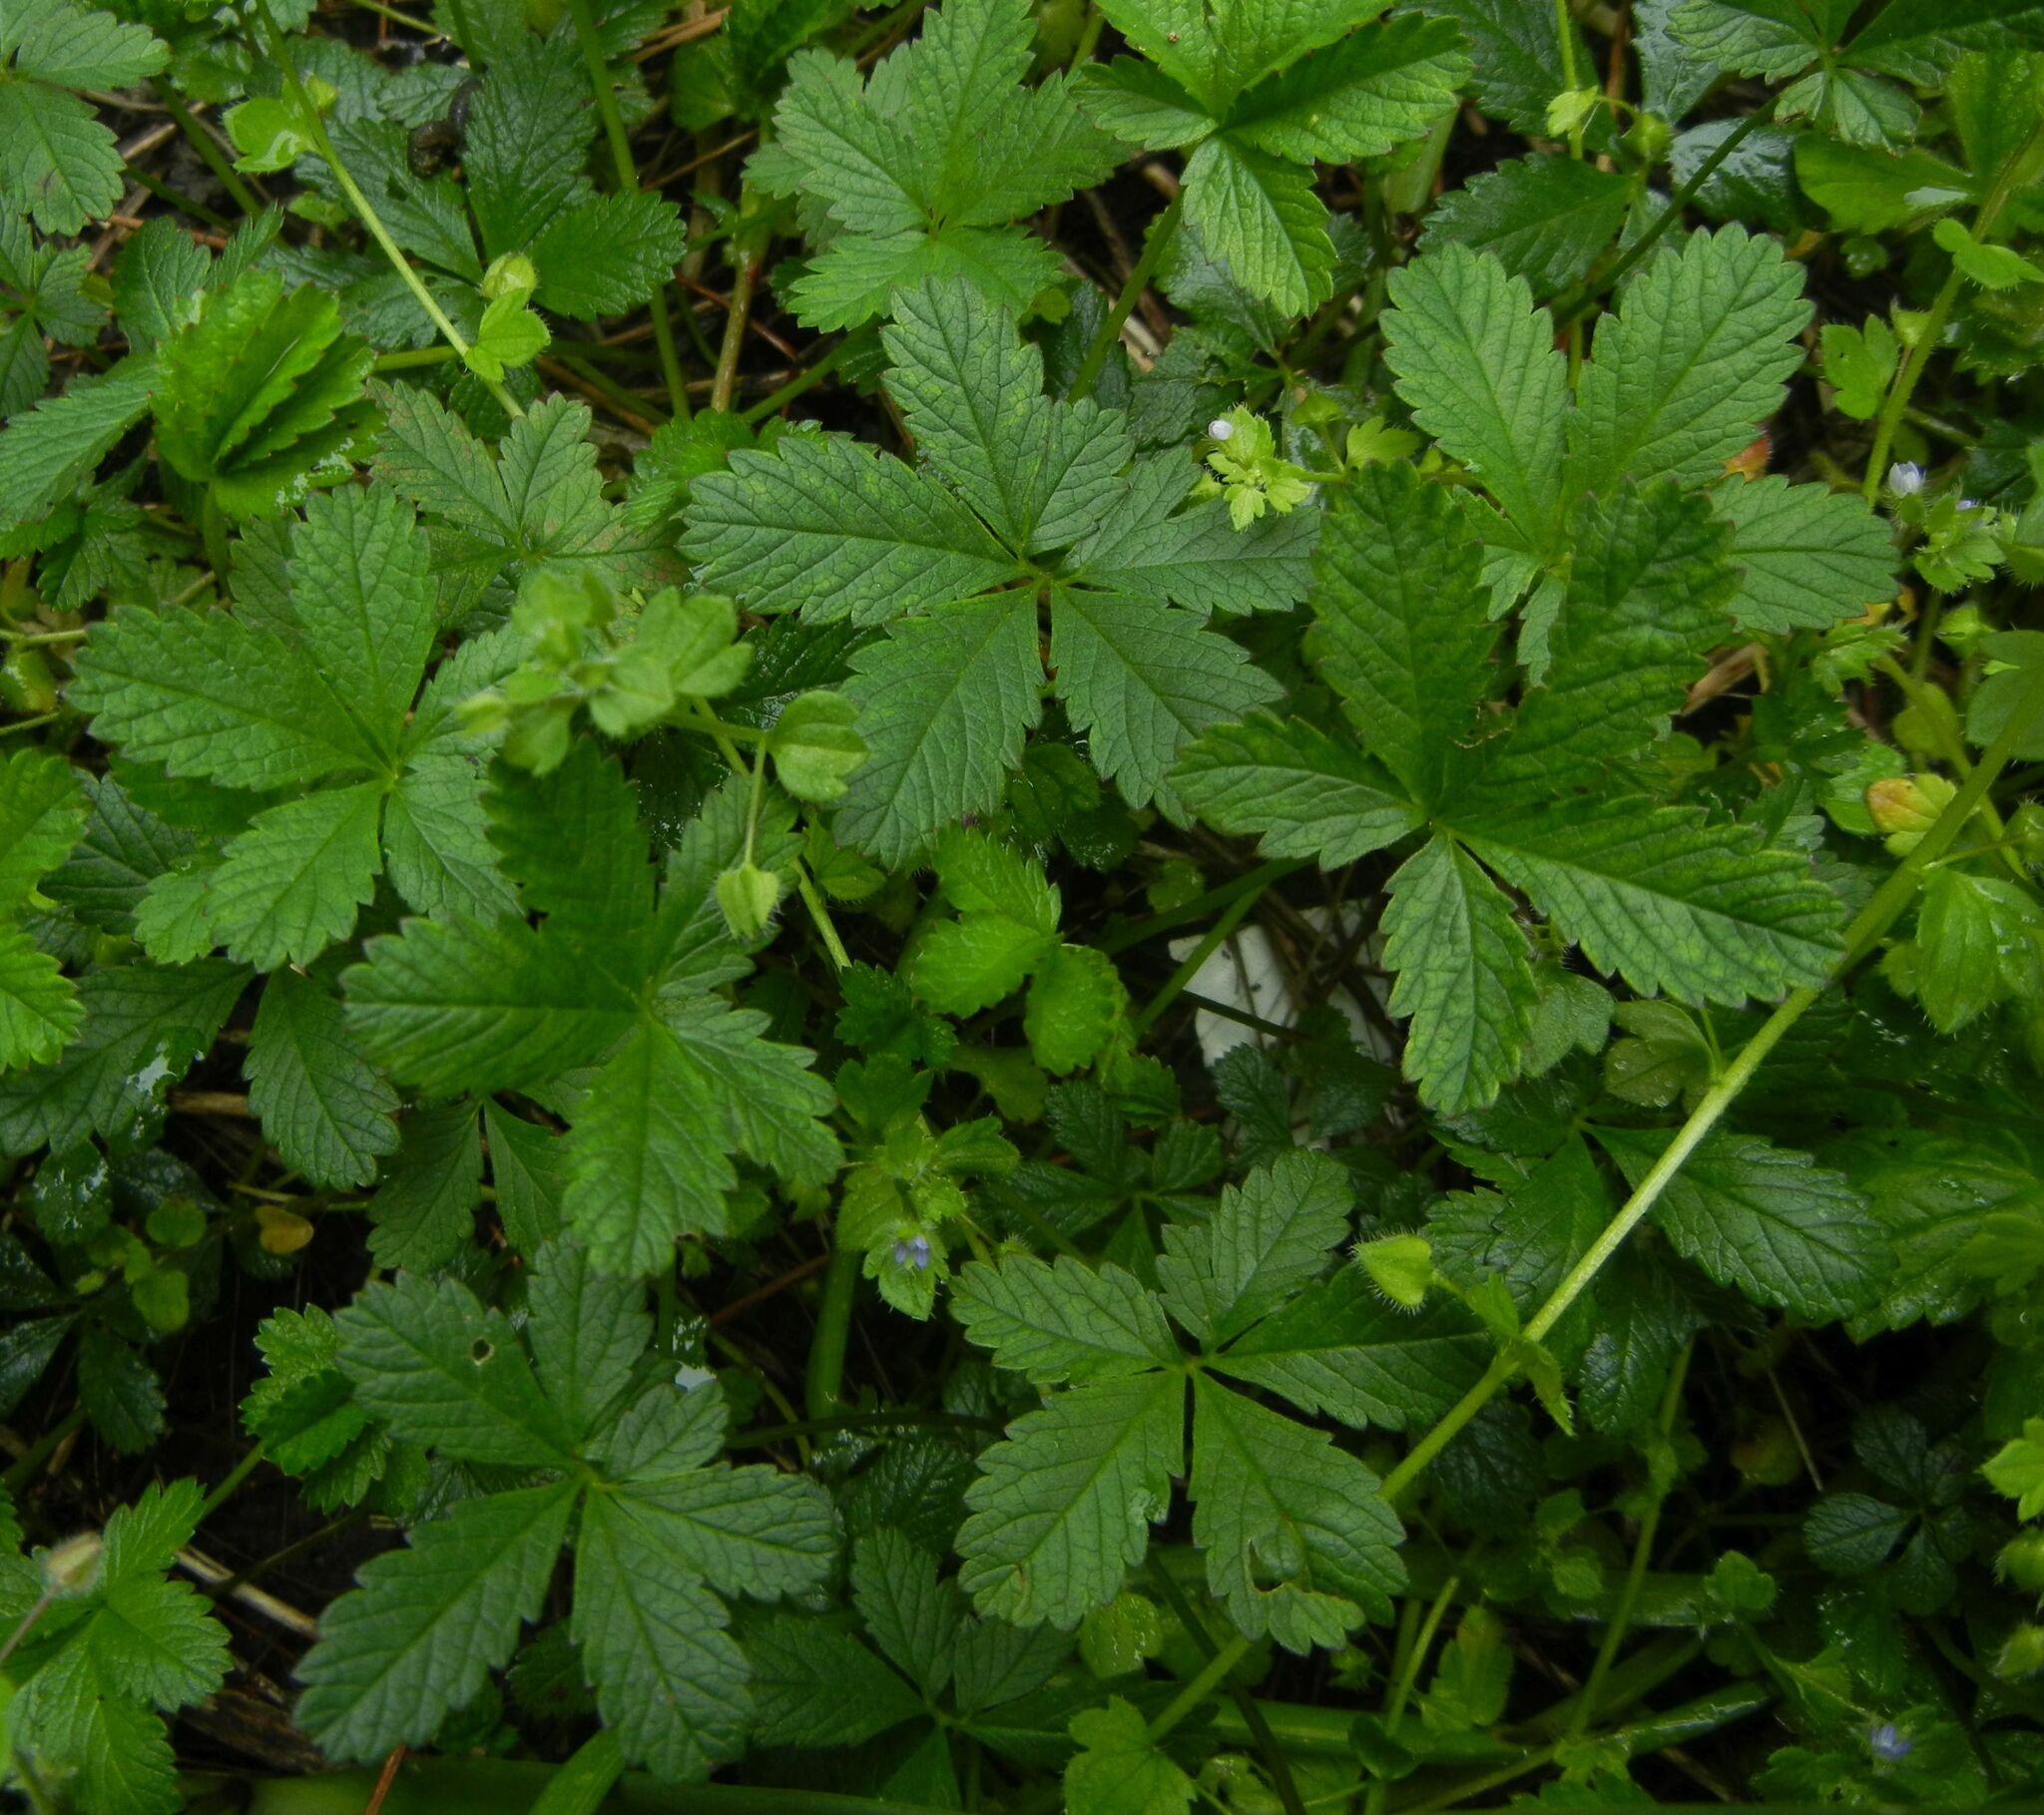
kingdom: Plantae
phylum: Tracheophyta
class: Magnoliopsida
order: Rosales
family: Rosaceae
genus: Potentilla
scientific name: Potentilla reptans
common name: Creeping cinquefoil
